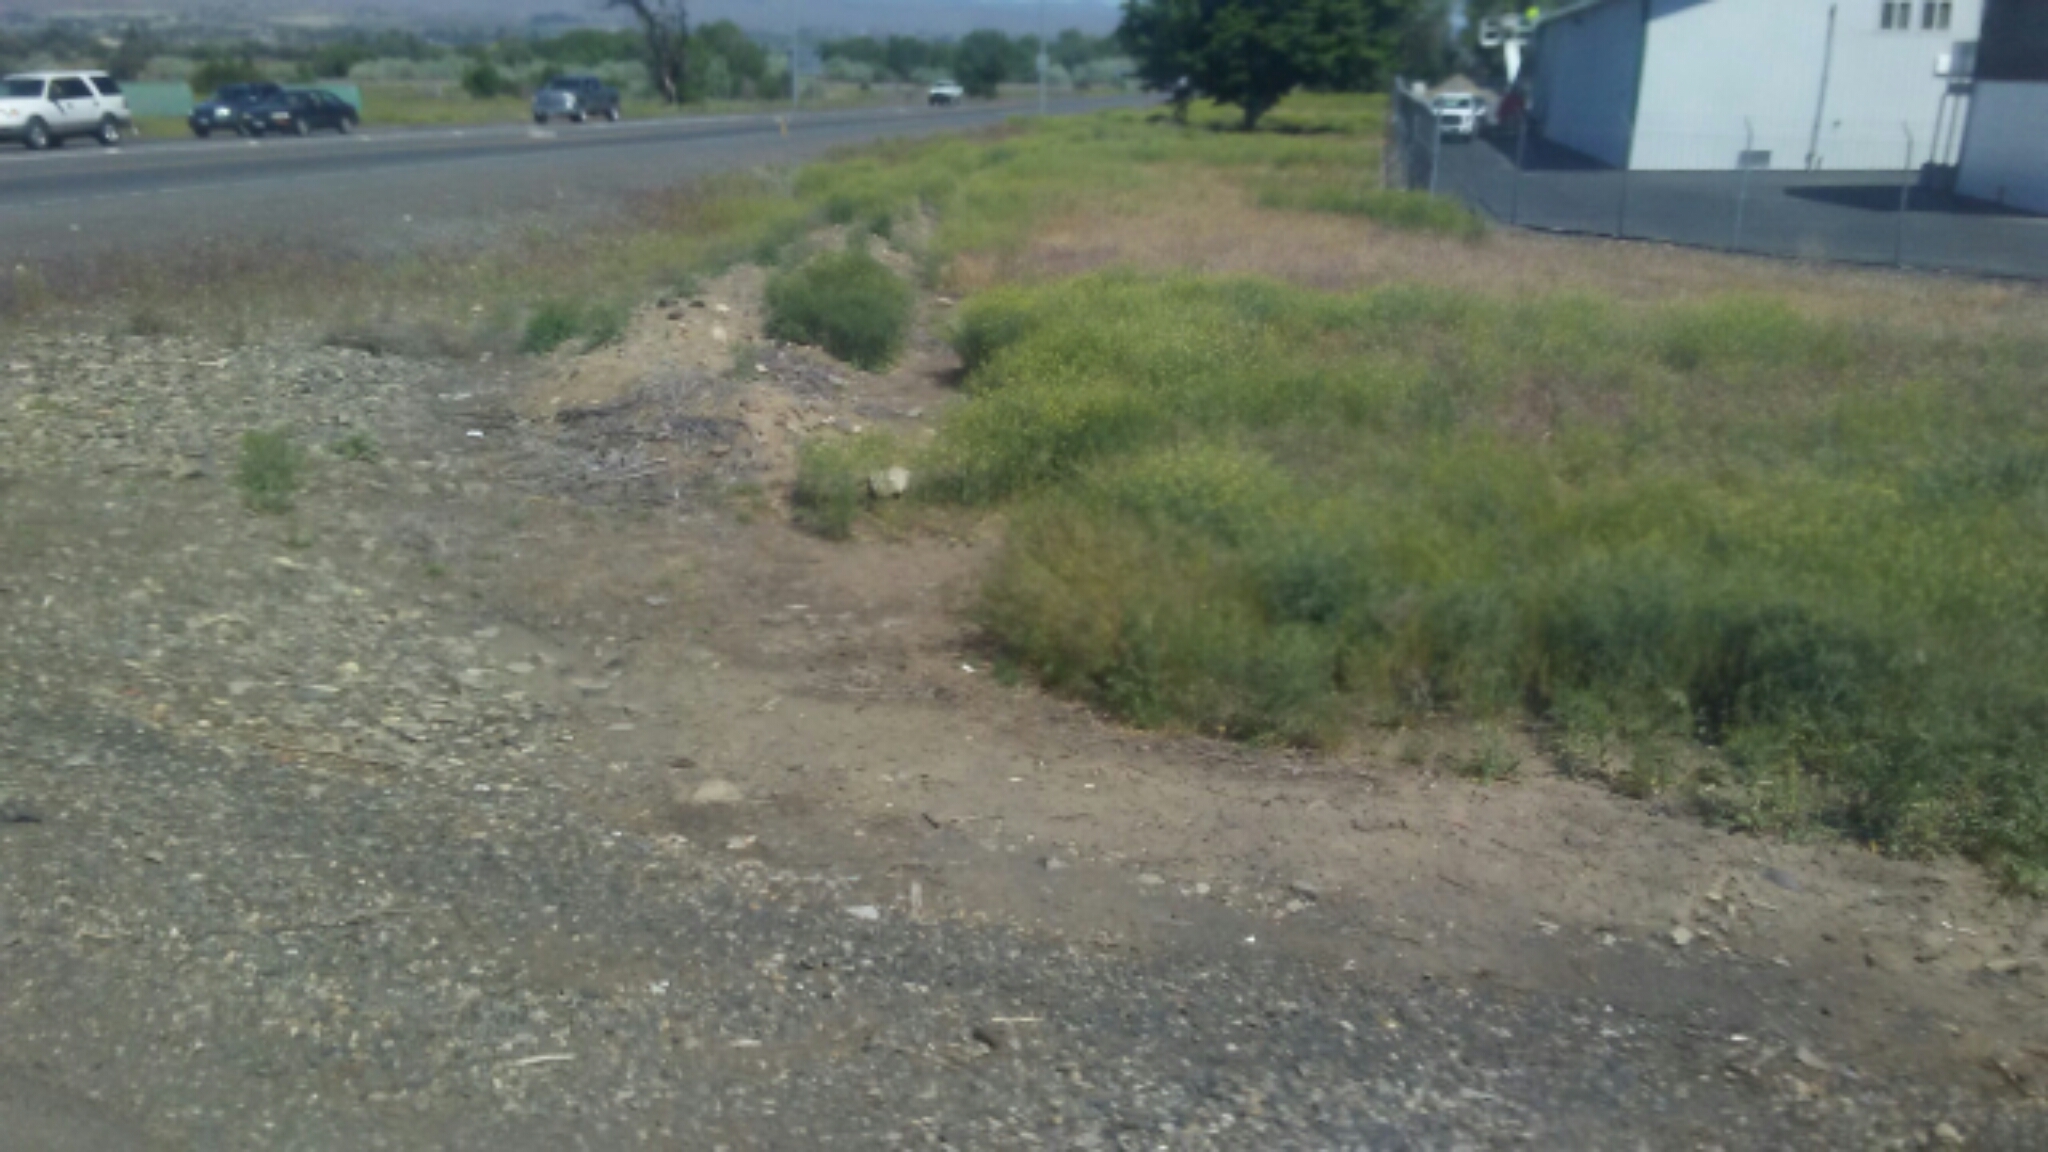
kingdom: Animalia
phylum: Chordata
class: Mammalia
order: Rodentia
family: Sciuridae
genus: Urocitellus
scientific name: Urocitellus townsendii
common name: Townsend's ground squirrel
